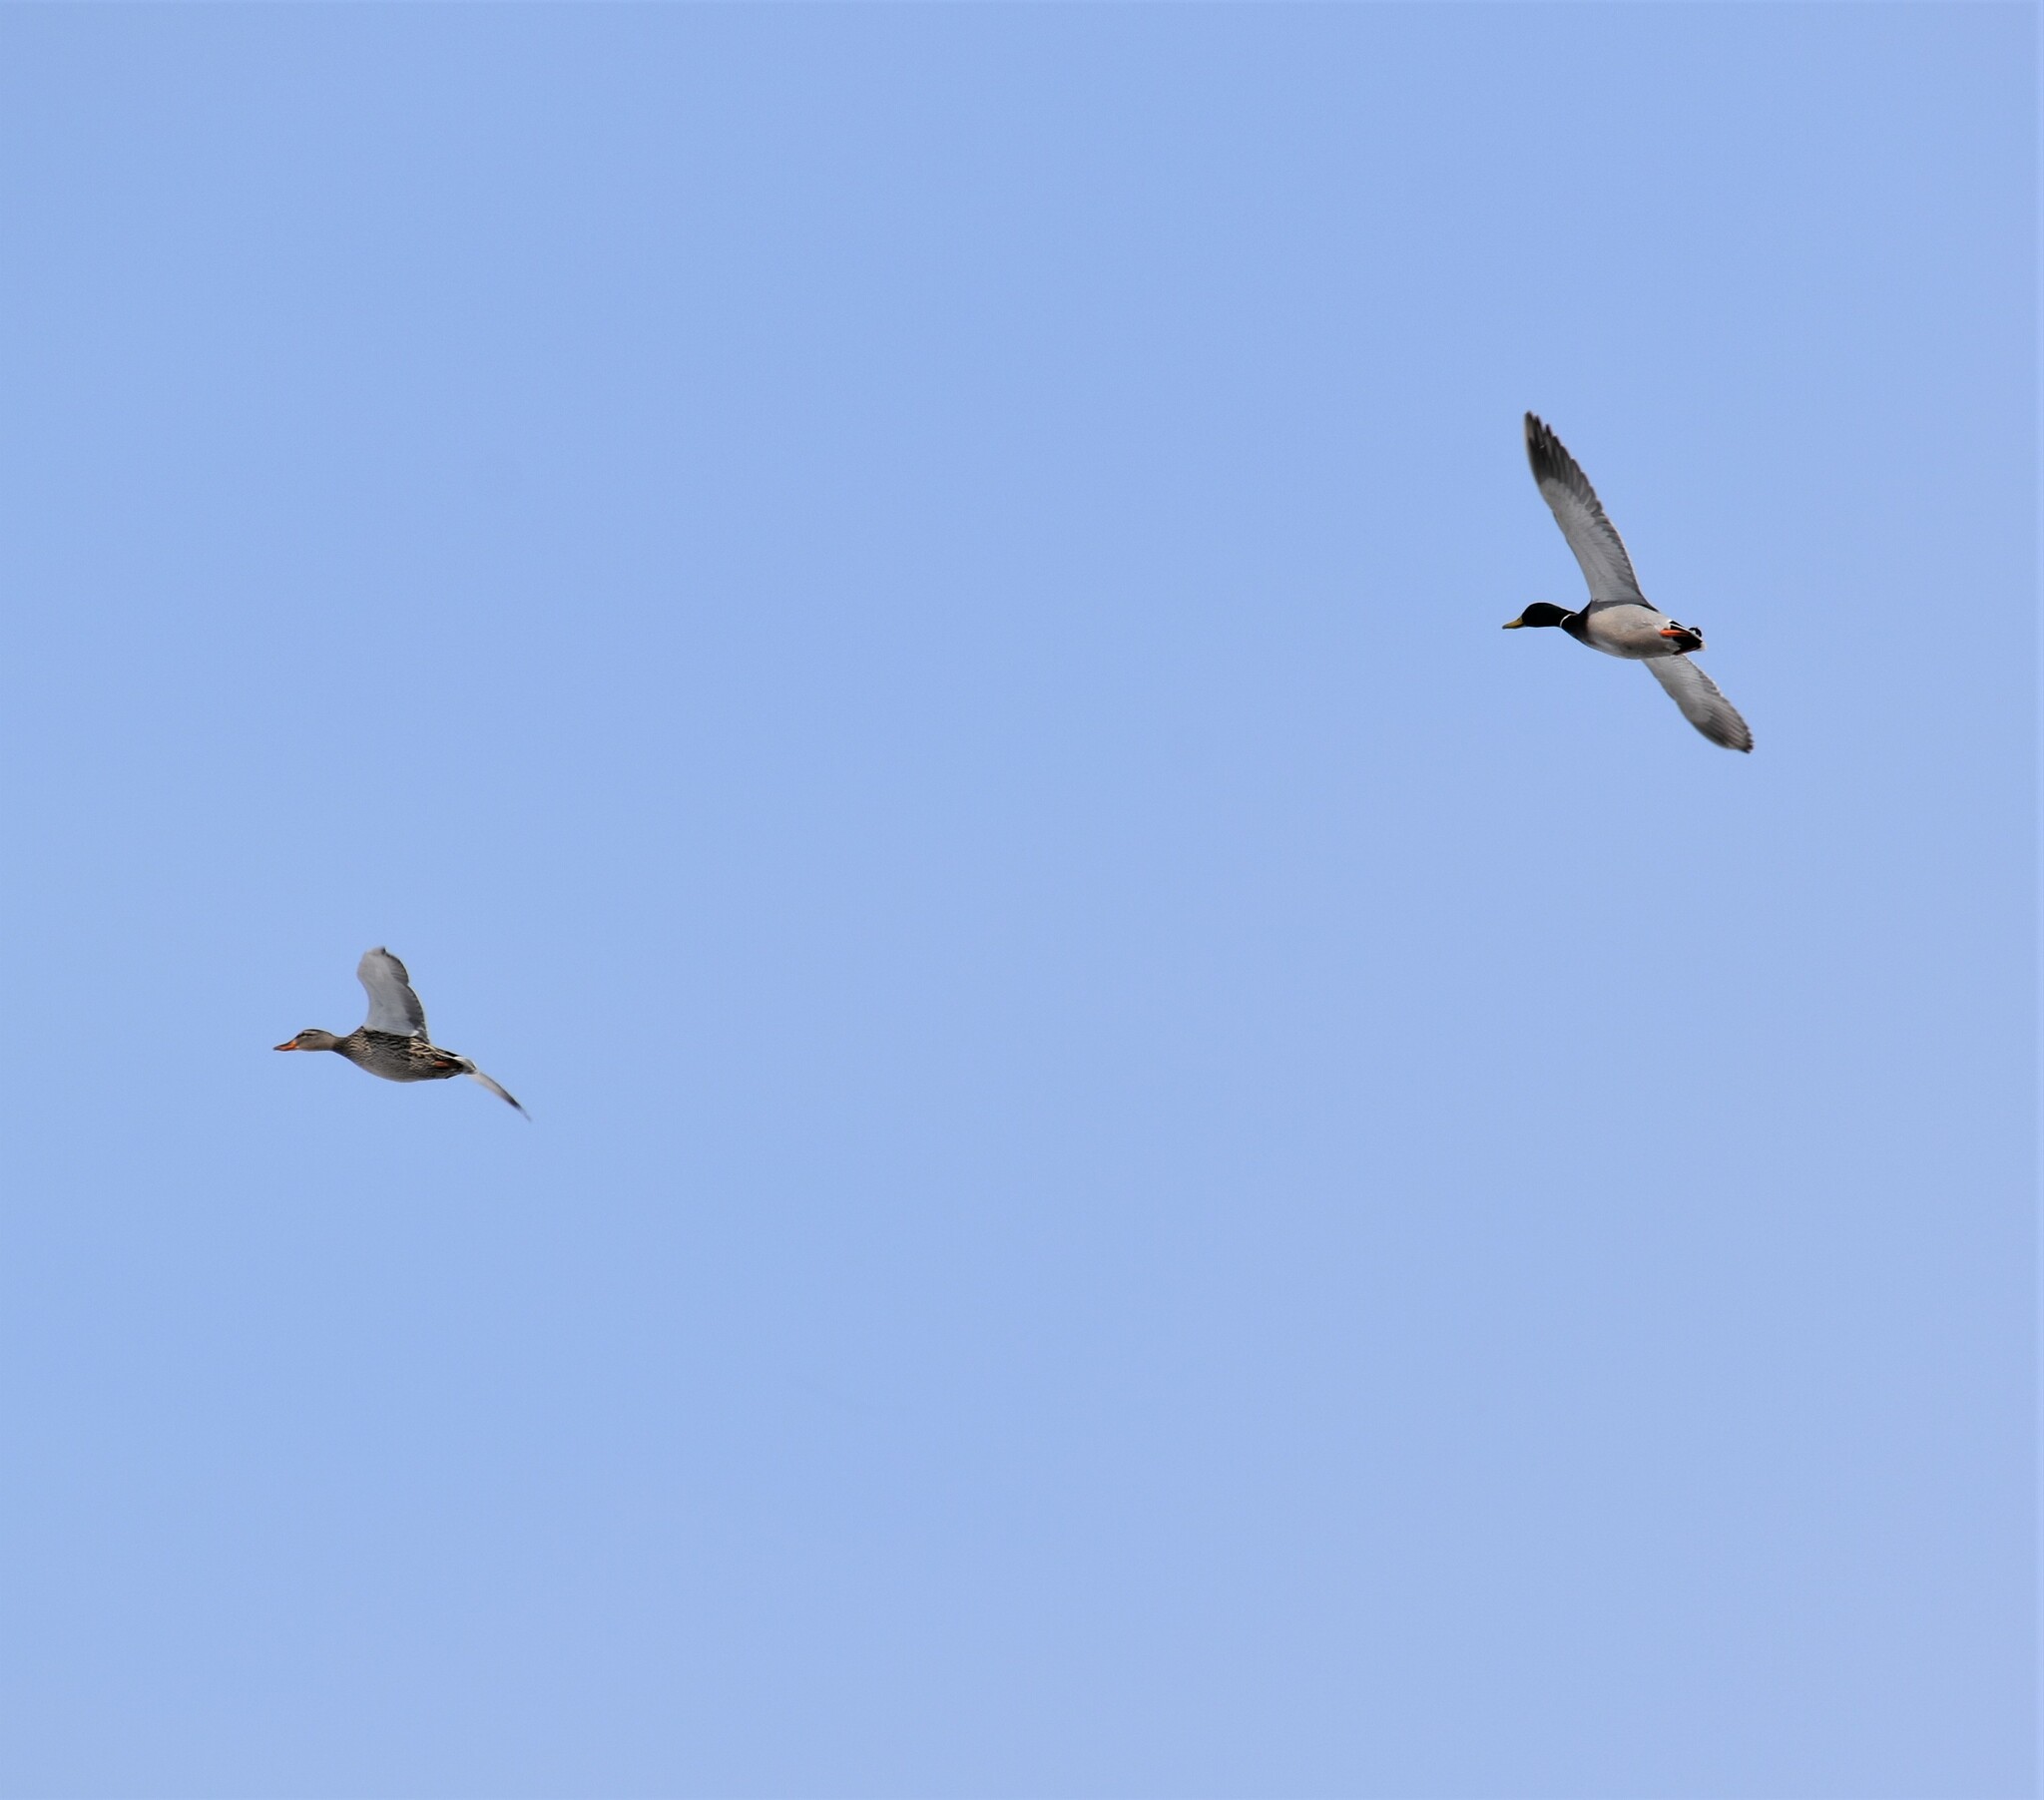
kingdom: Animalia
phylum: Chordata
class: Aves
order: Anseriformes
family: Anatidae
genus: Anas
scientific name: Anas platyrhynchos
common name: Mallard
